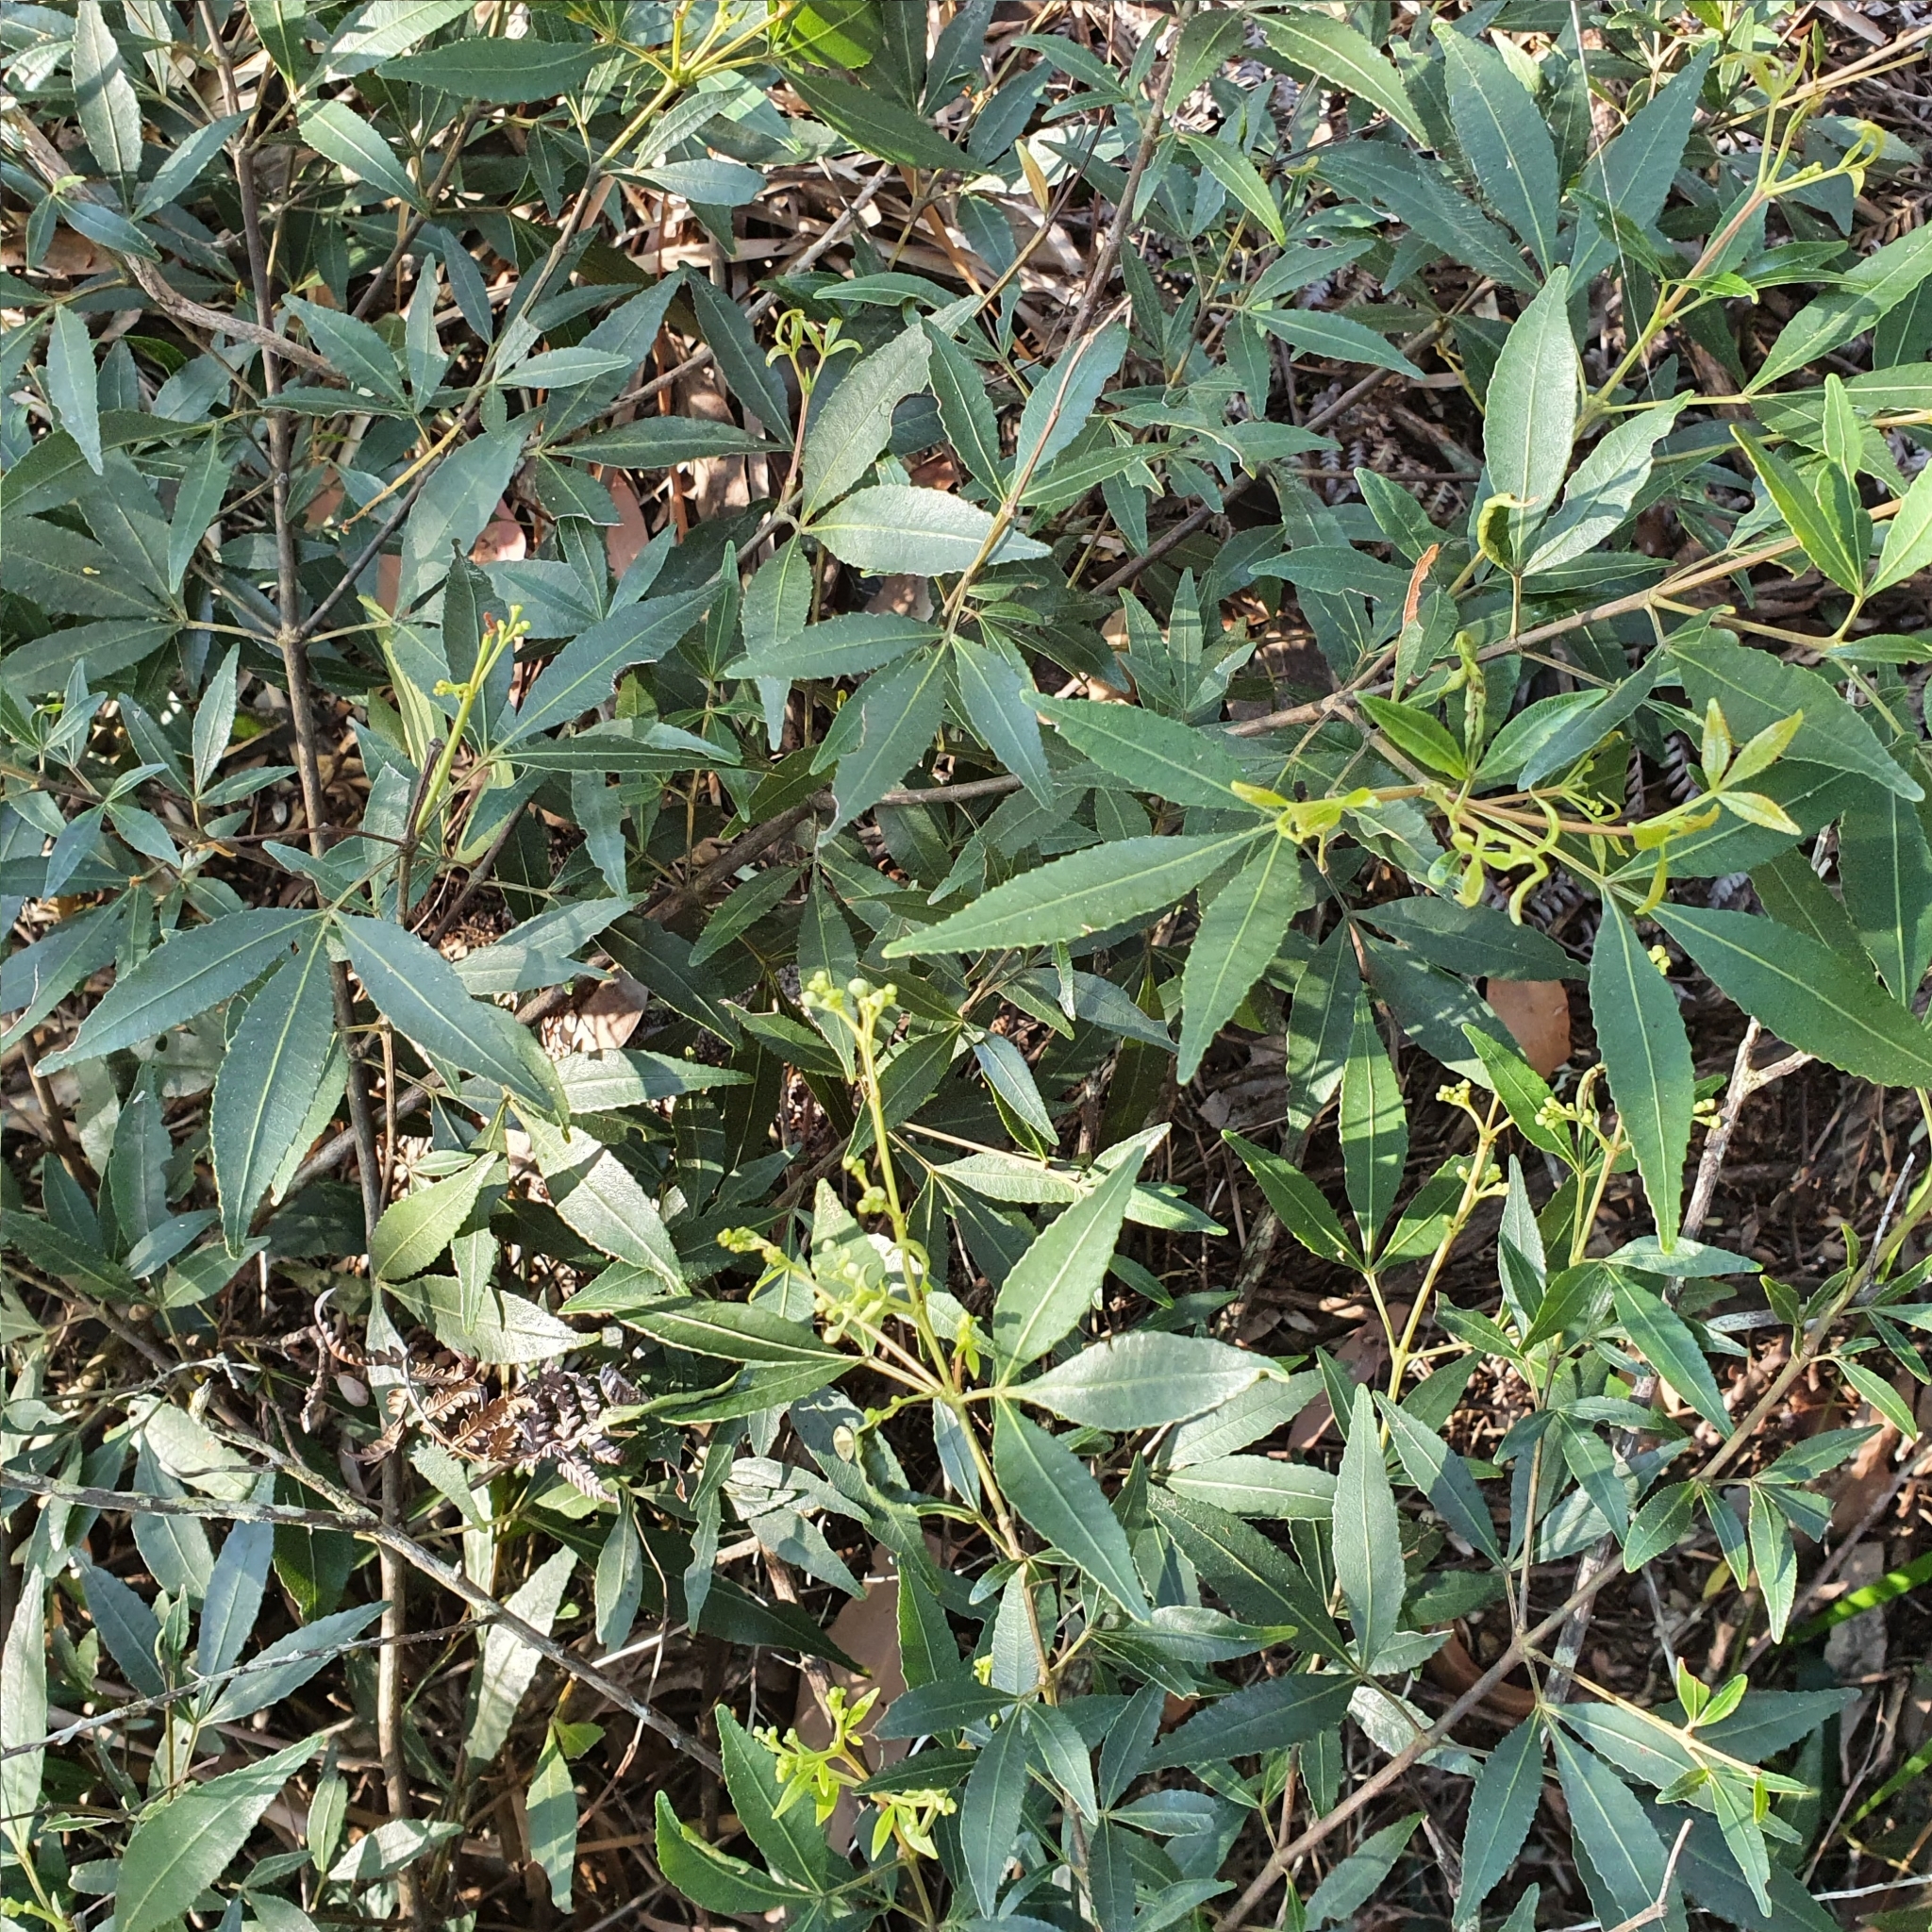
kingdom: Plantae
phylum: Tracheophyta
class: Magnoliopsida
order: Oxalidales
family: Cunoniaceae
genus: Ceratopetalum
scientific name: Ceratopetalum gummiferum
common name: Christmasbush
